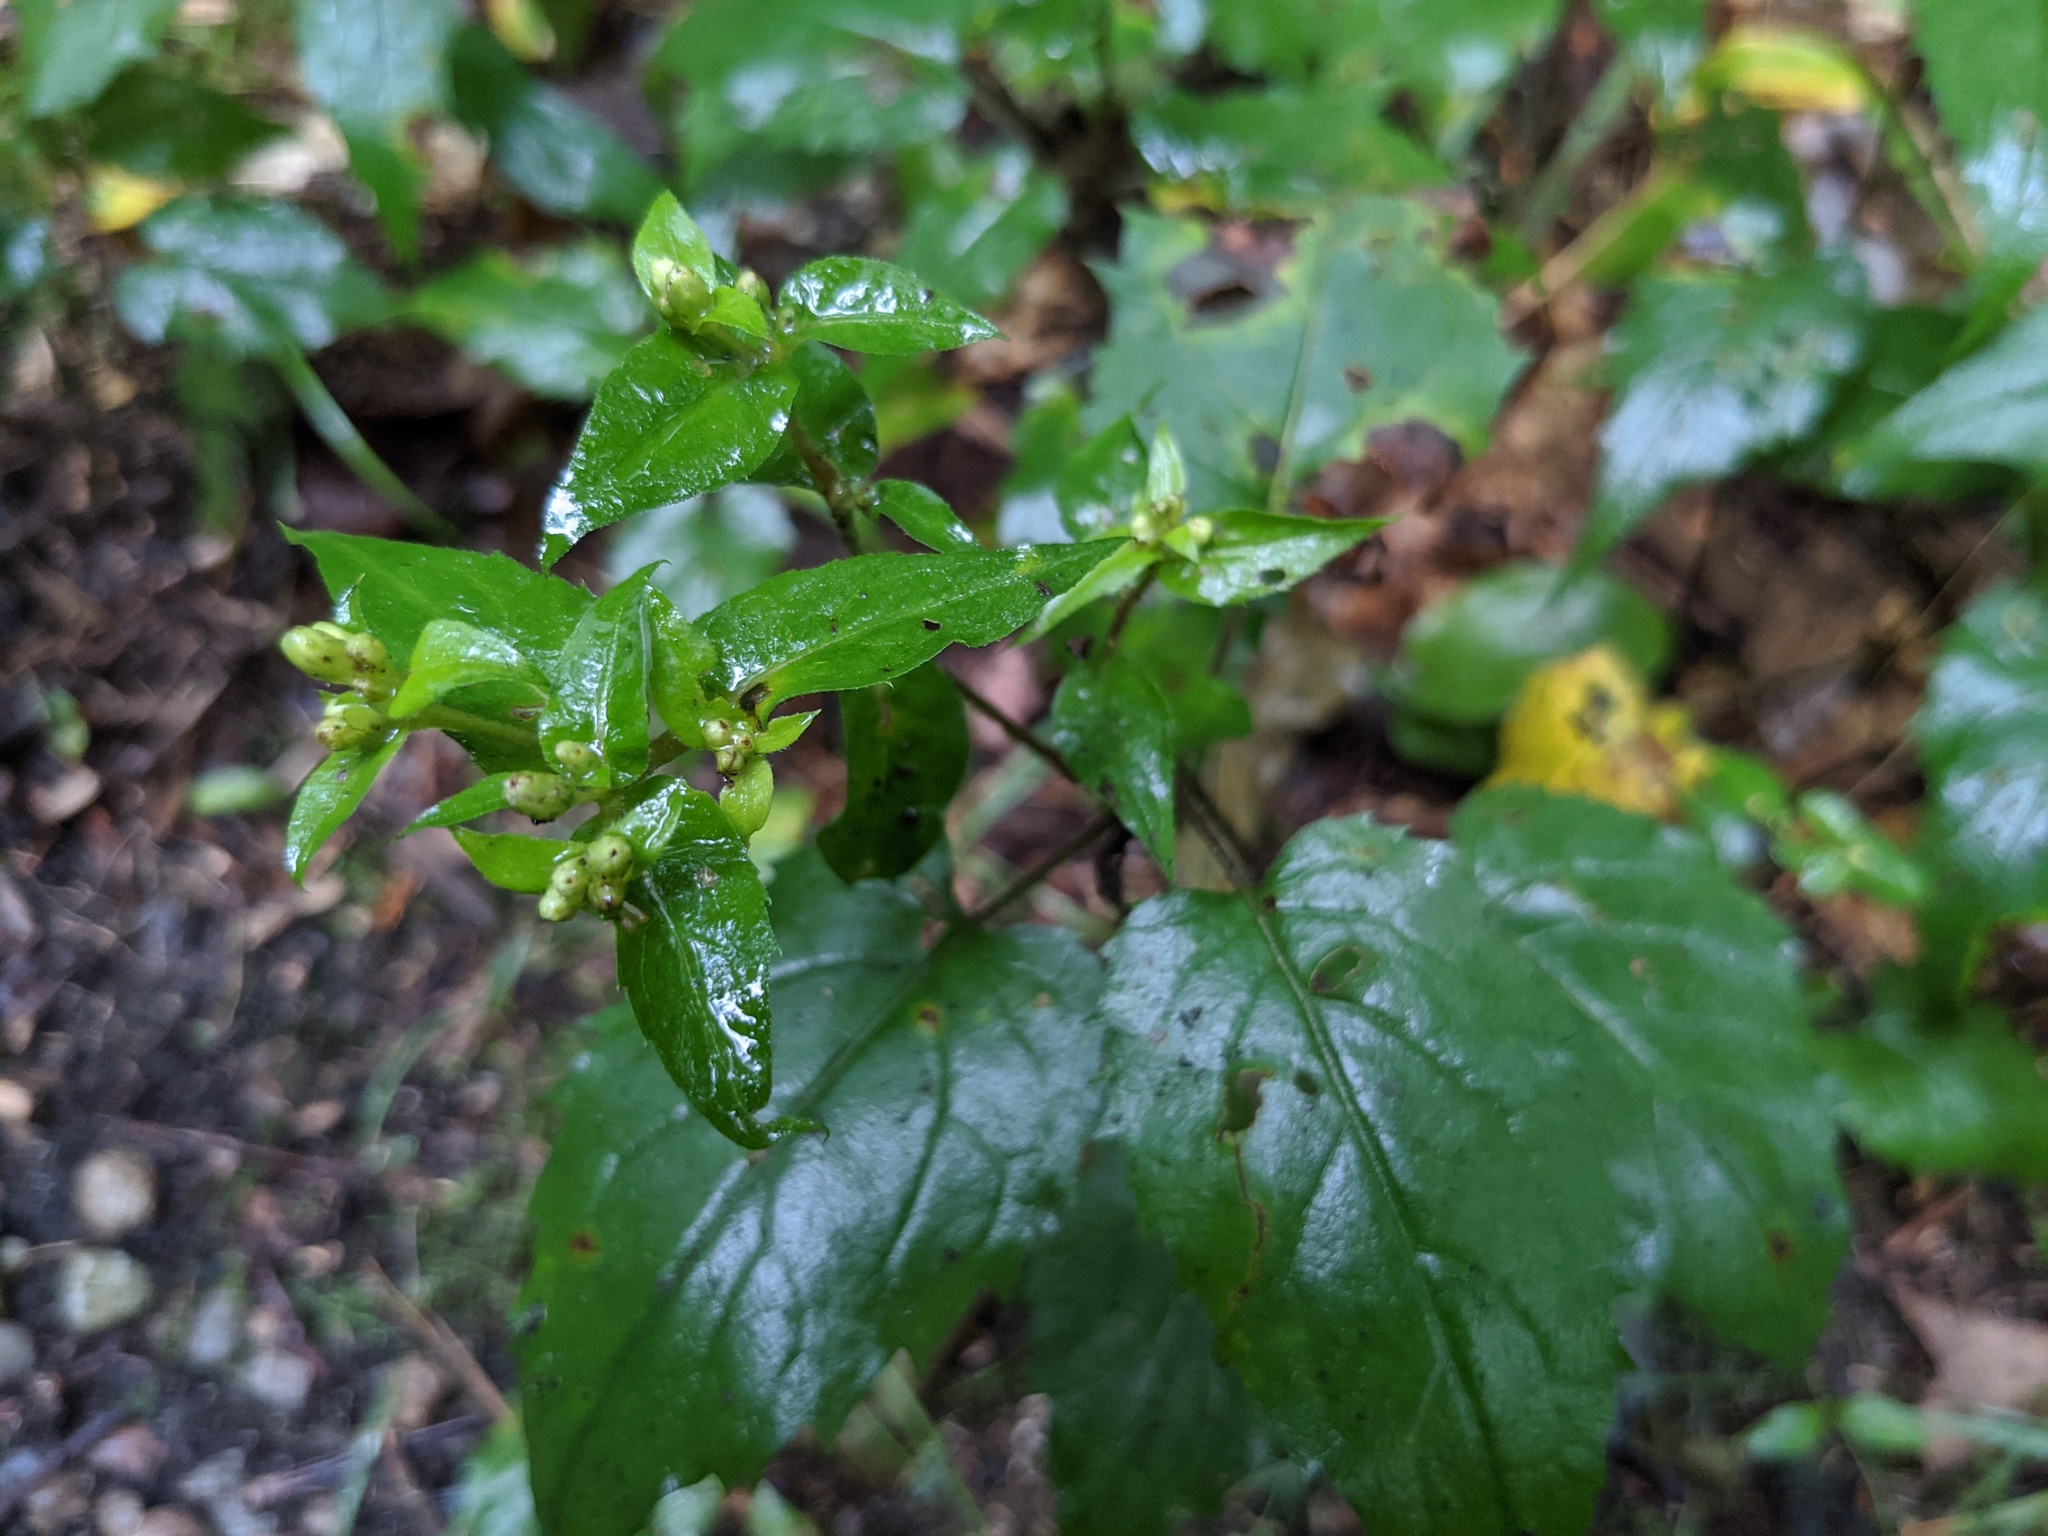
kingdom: Plantae
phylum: Tracheophyta
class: Magnoliopsida
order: Asterales
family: Asteraceae
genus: Eurybia
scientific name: Eurybia divaricata
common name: White wood aster
